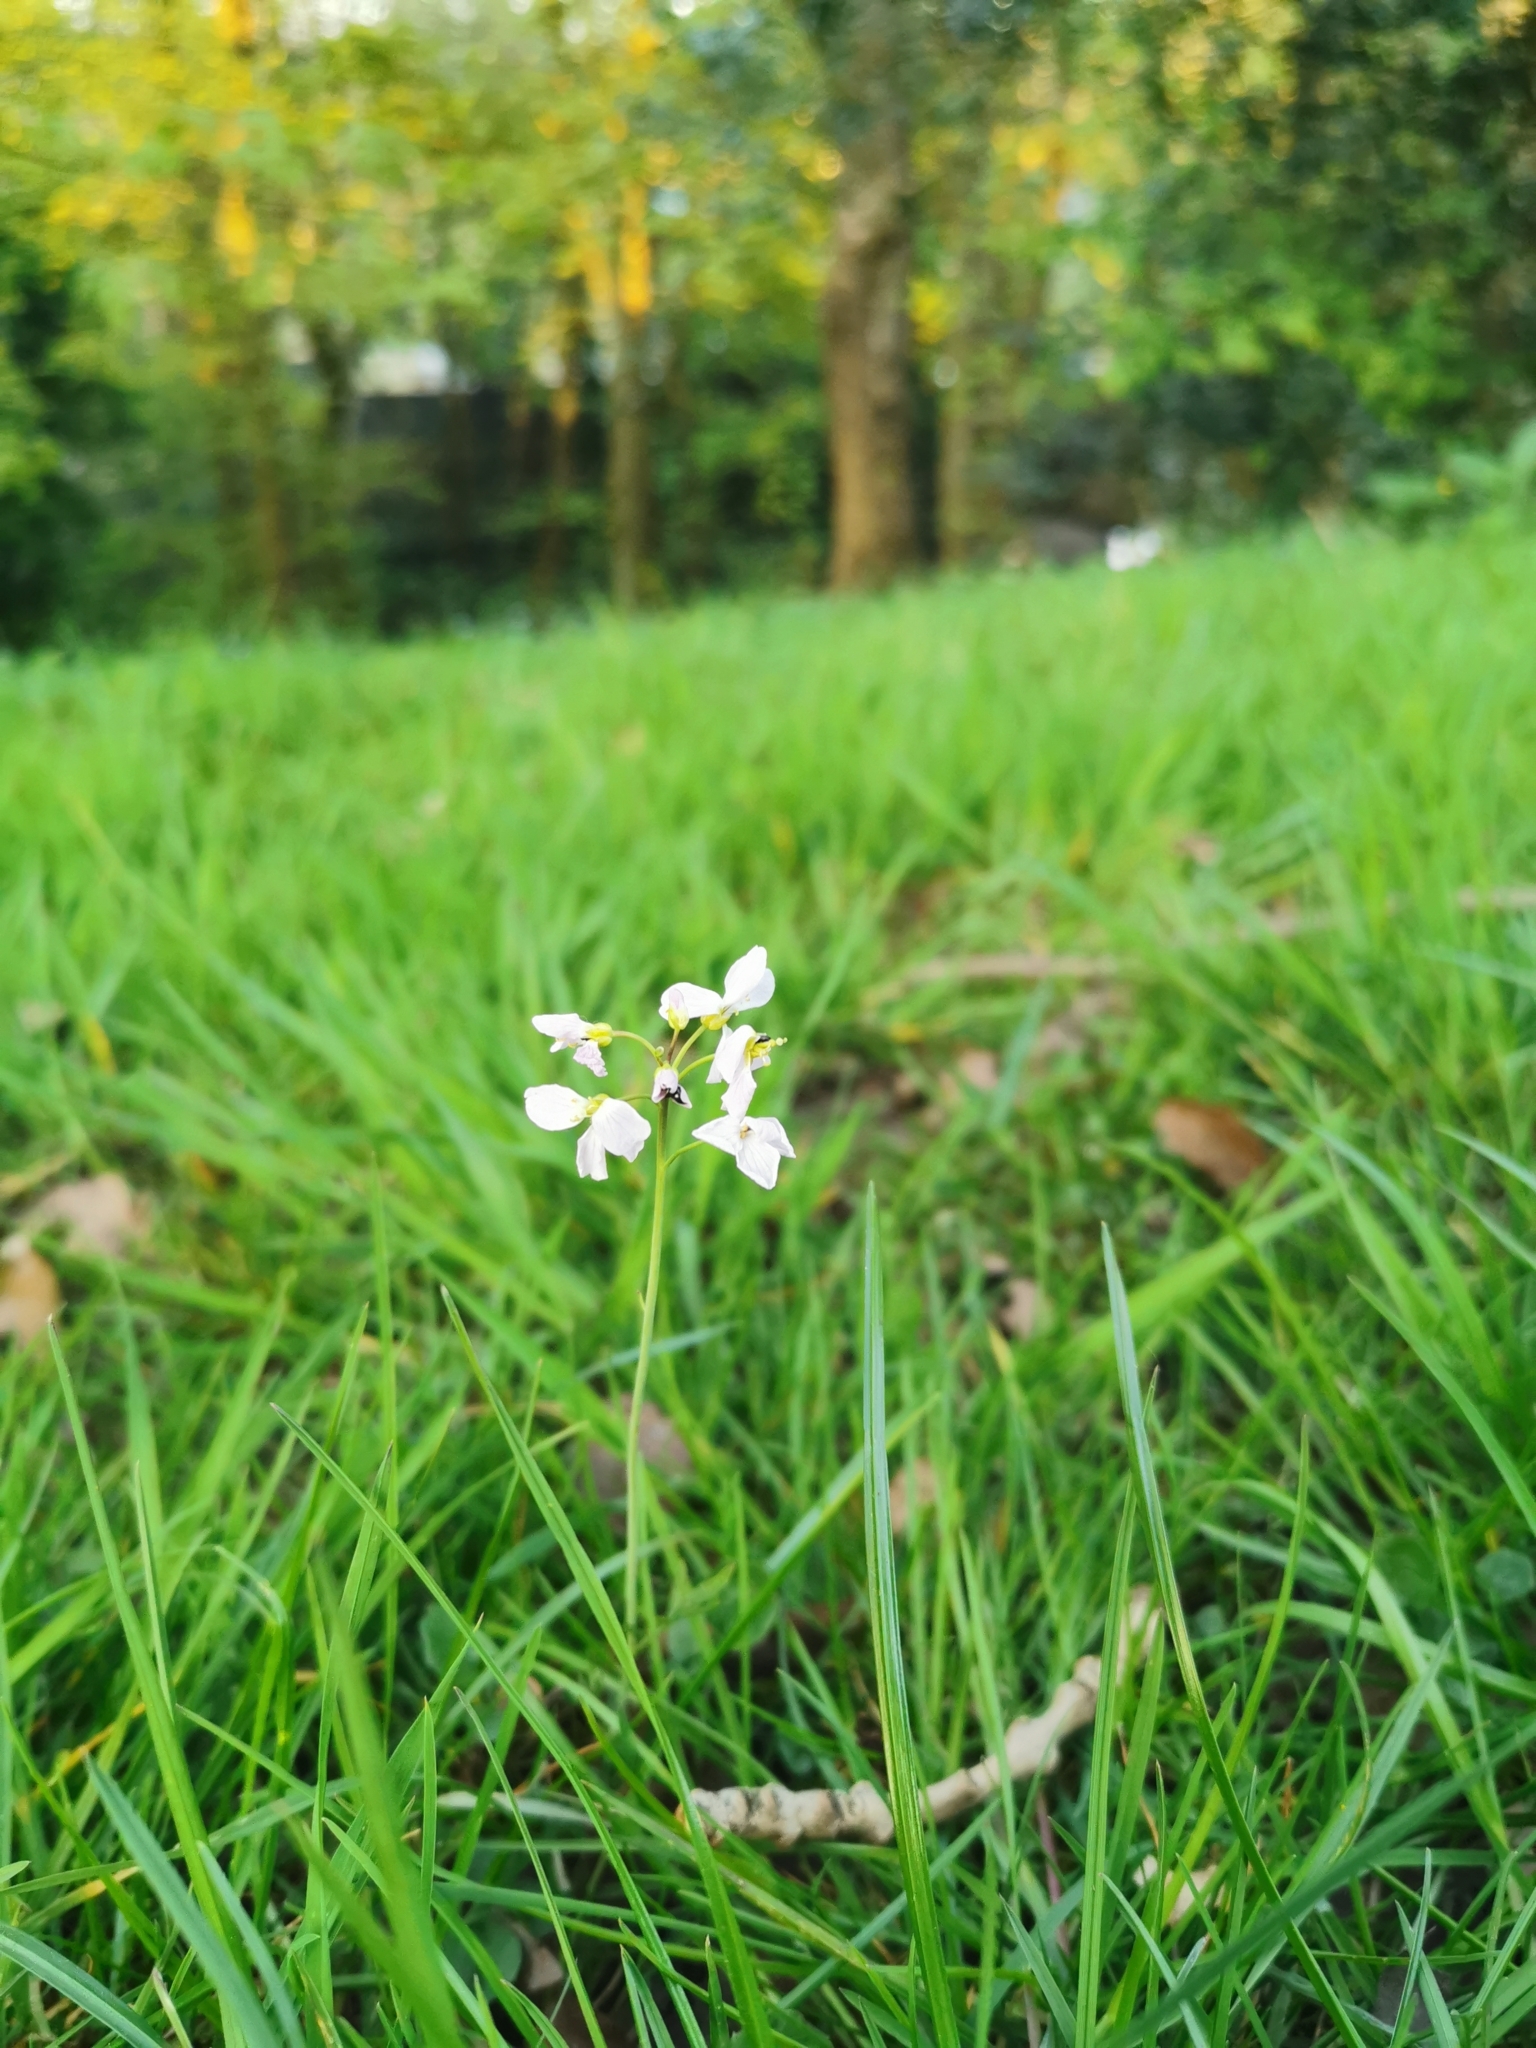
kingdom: Plantae
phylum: Tracheophyta
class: Magnoliopsida
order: Brassicales
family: Brassicaceae
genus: Cardamine
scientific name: Cardamine pratensis
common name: Cuckoo flower
